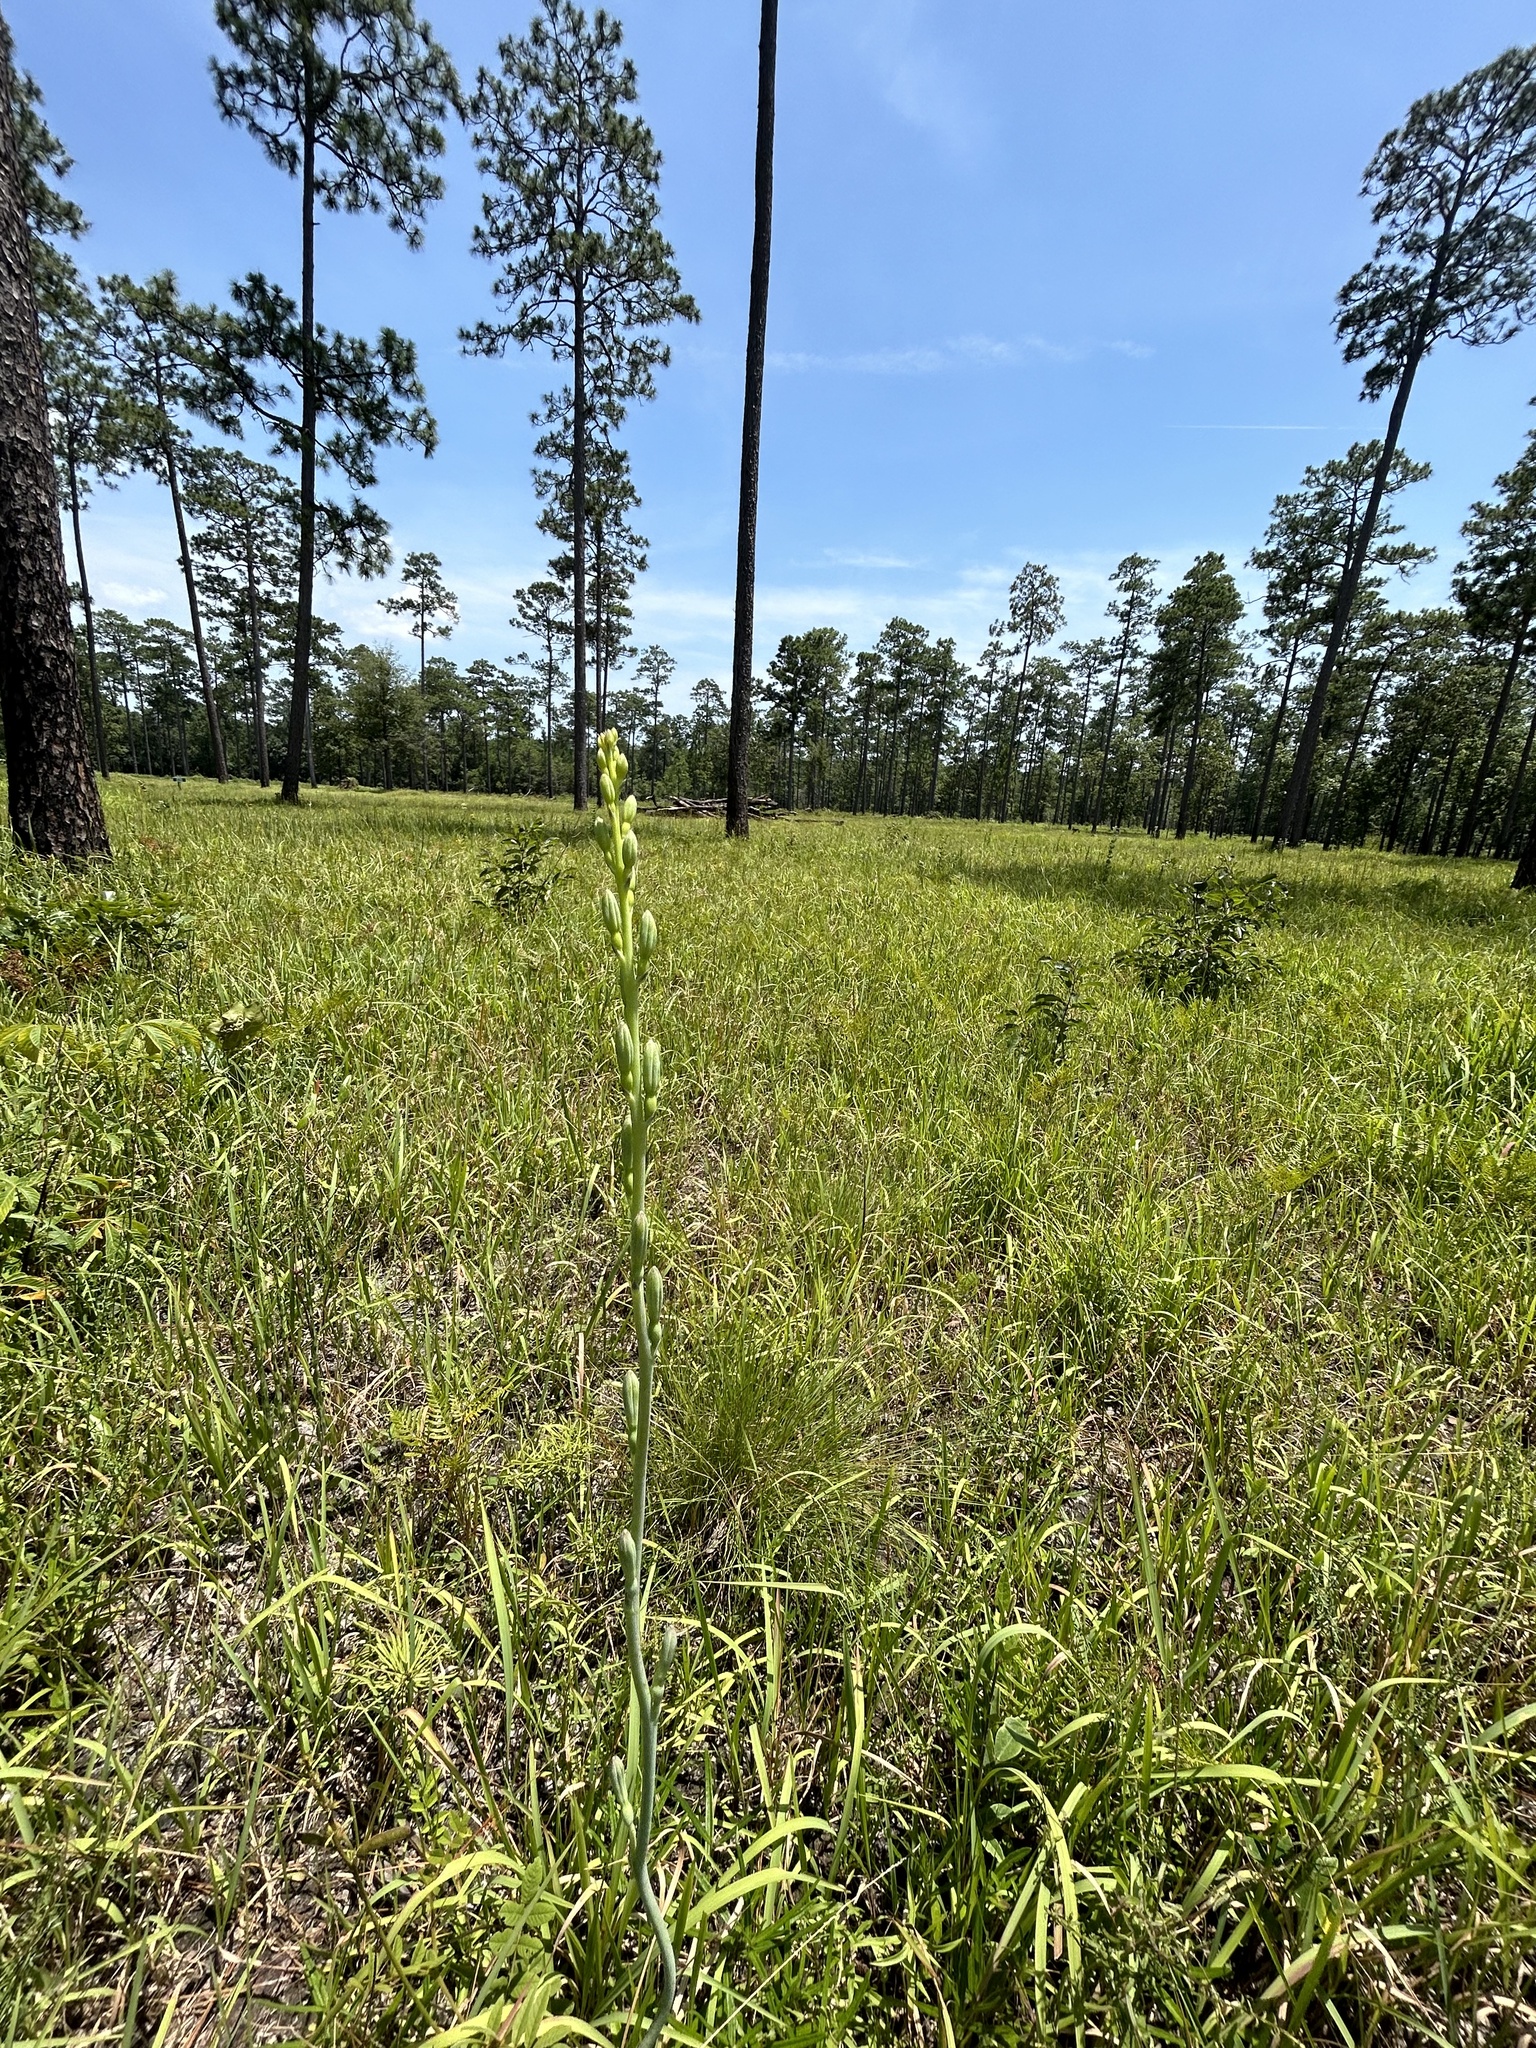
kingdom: Plantae
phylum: Tracheophyta
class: Liliopsida
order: Asparagales
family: Asparagaceae
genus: Agave
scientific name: Agave virginica
